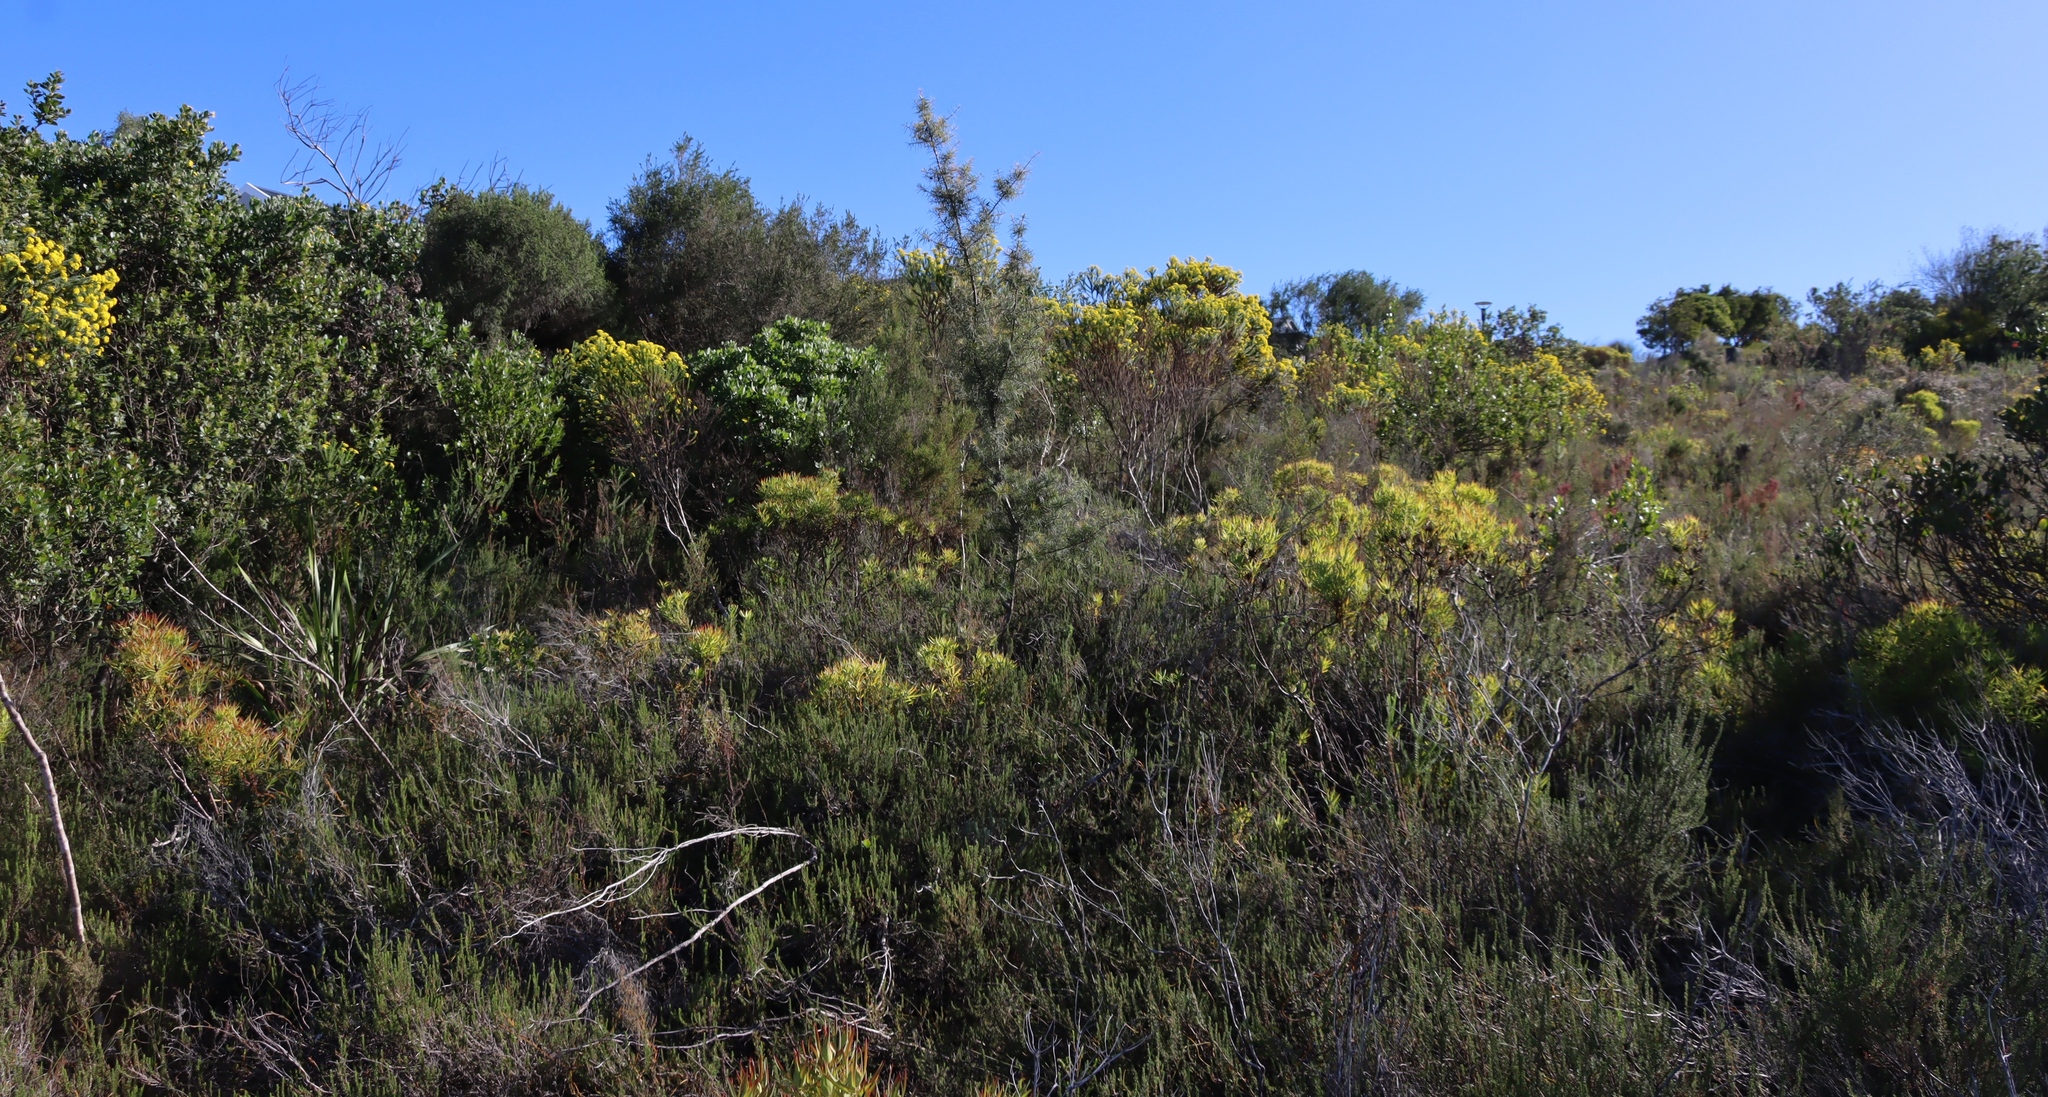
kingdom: Plantae
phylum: Tracheophyta
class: Magnoliopsida
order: Proteales
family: Proteaceae
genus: Hakea
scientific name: Hakea sericea
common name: Needle bush
